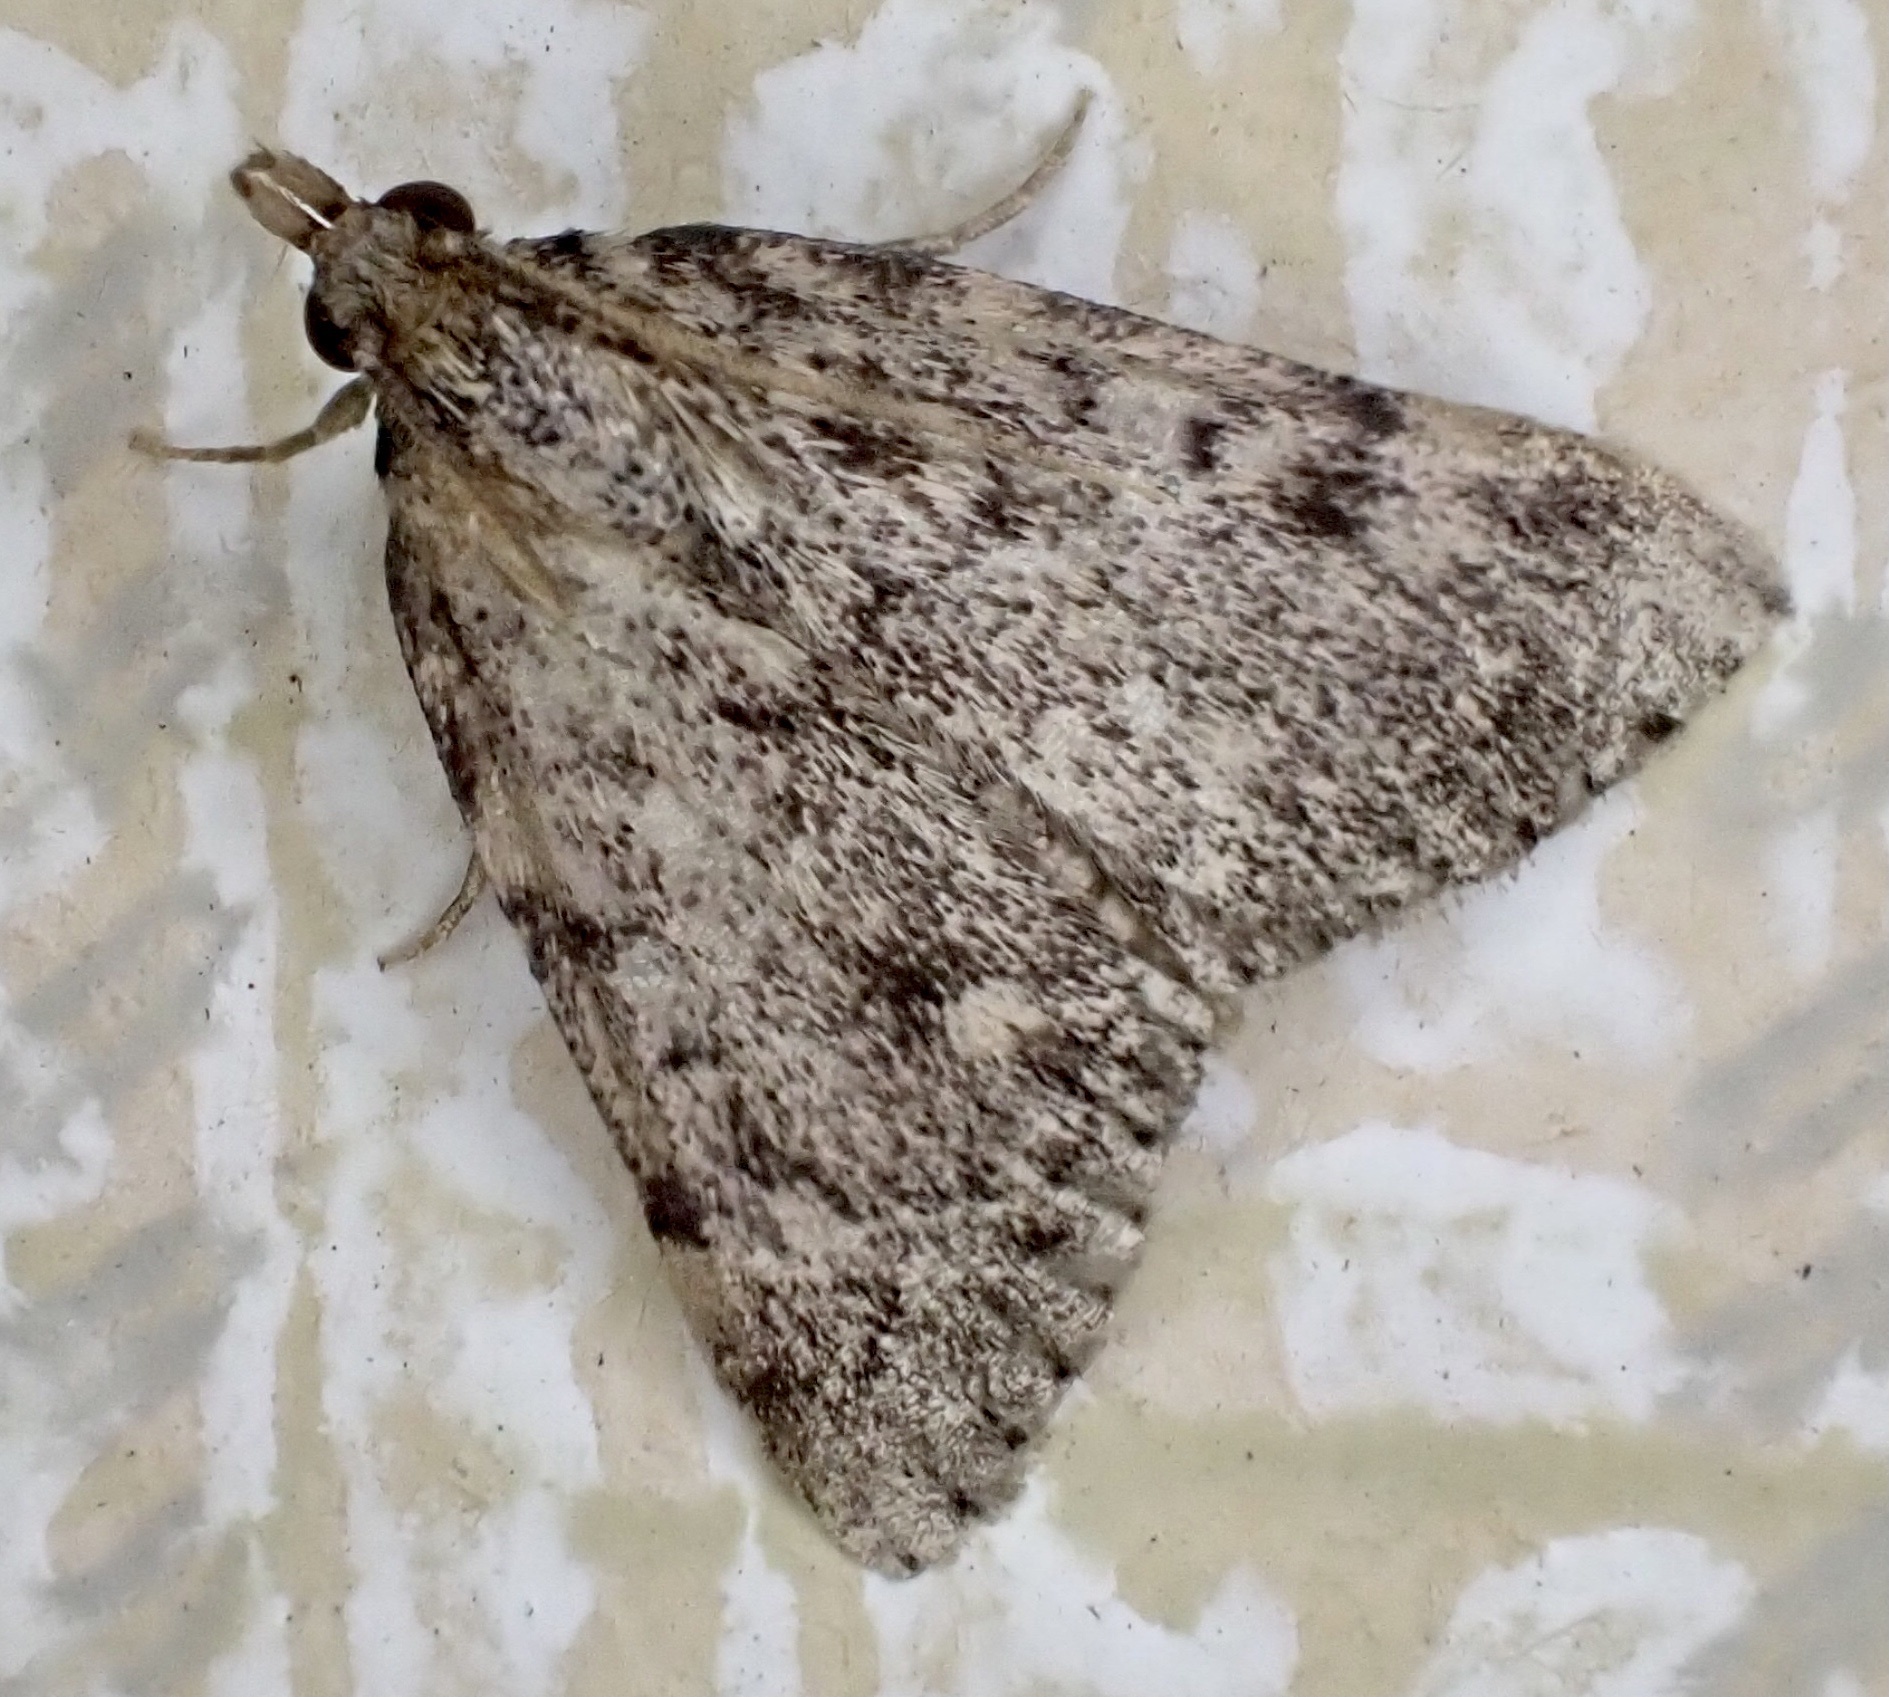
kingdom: Animalia
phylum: Arthropoda
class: Insecta
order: Lepidoptera
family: Pyralidae
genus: Aglossa
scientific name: Aglossa pinguinalis
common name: Large tabby
